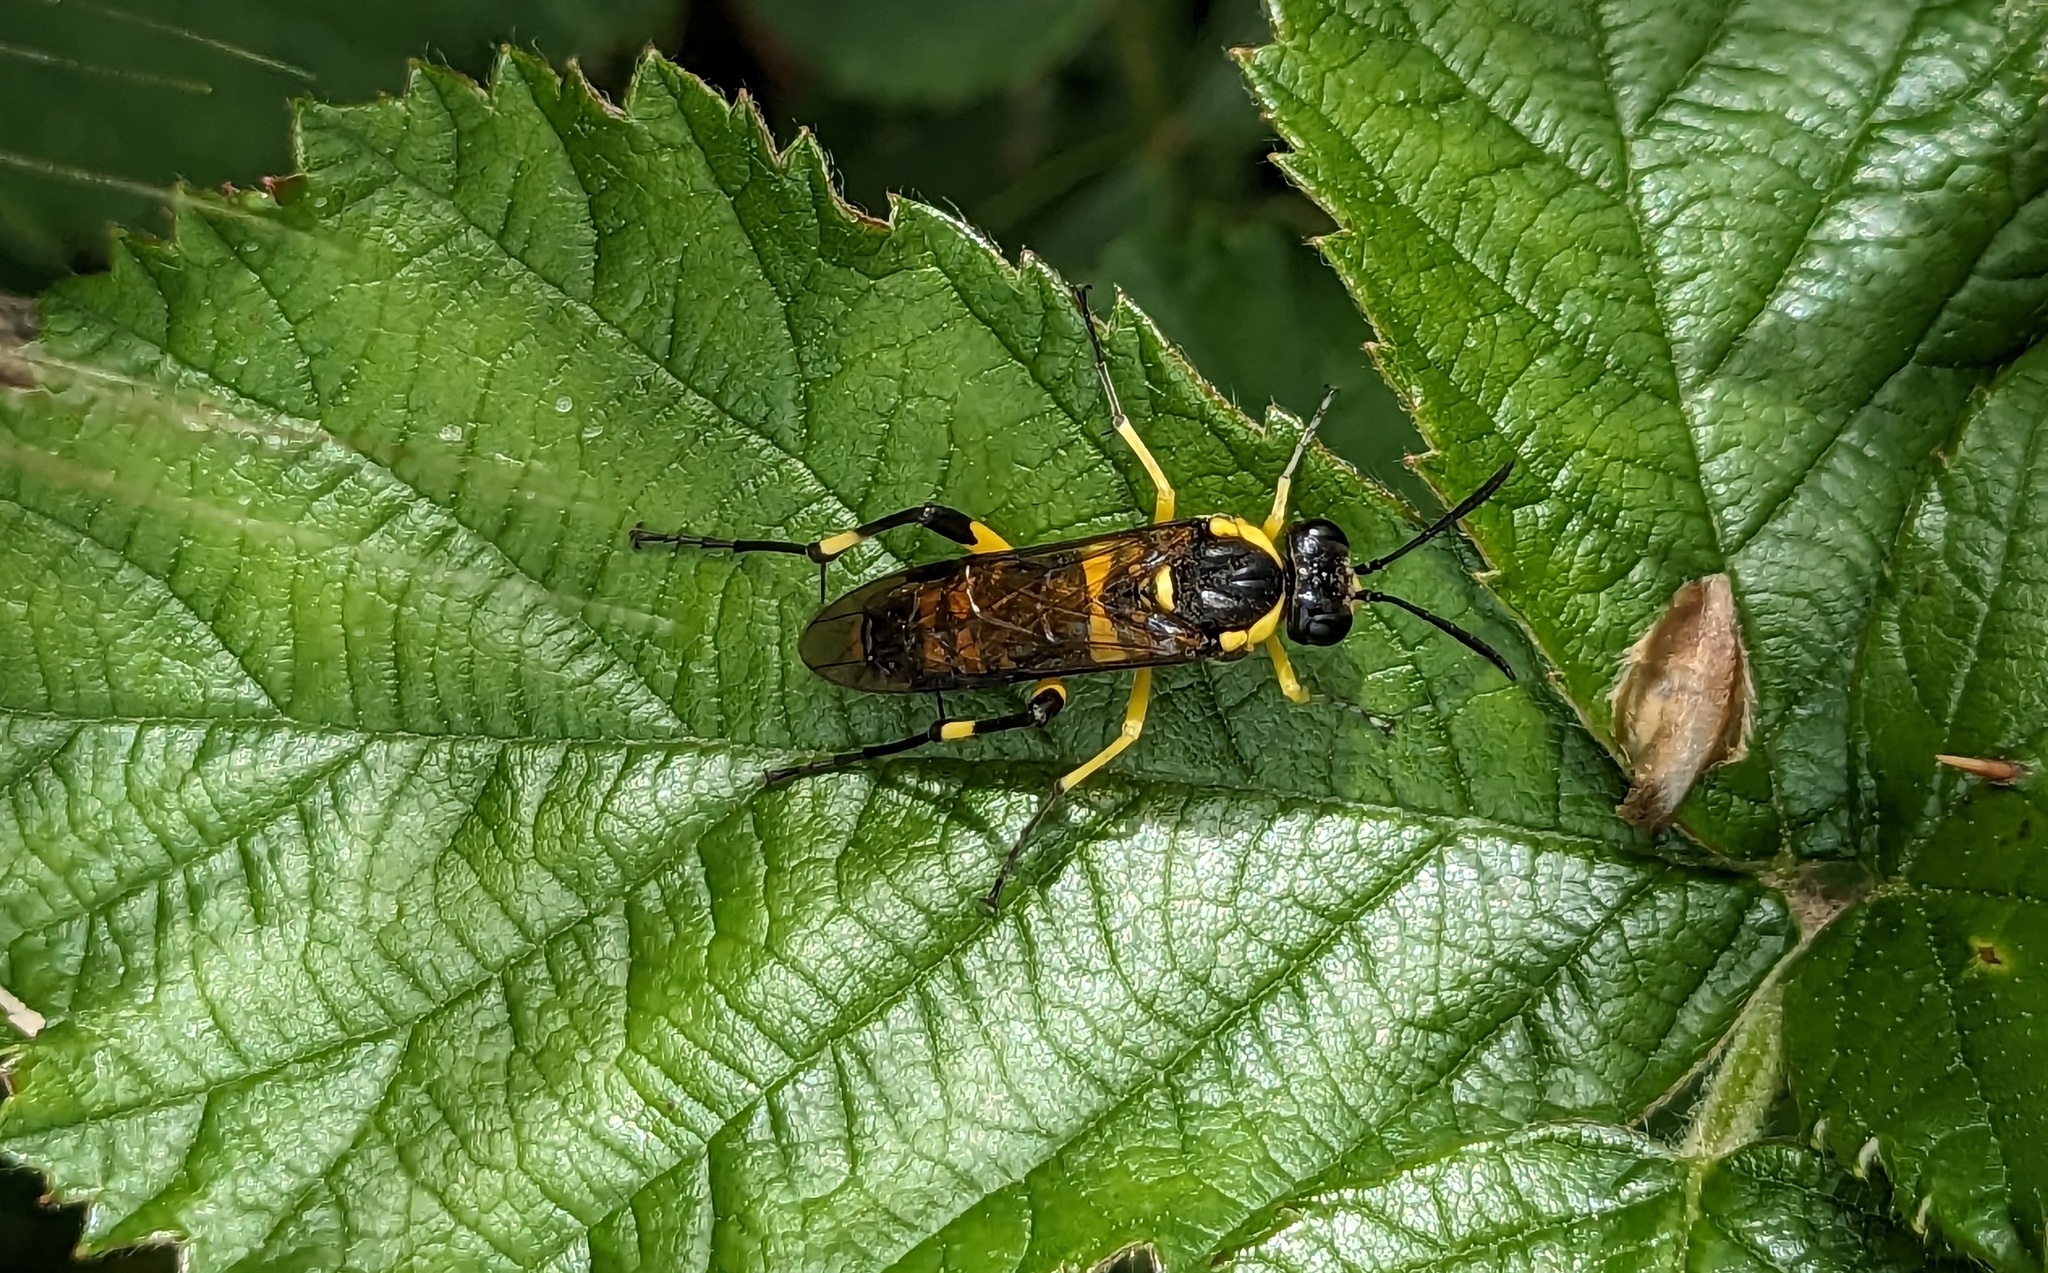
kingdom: Animalia
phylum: Arthropoda
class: Insecta
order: Hymenoptera
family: Tenthredinidae
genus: Macrophya
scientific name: Macrophya montana
